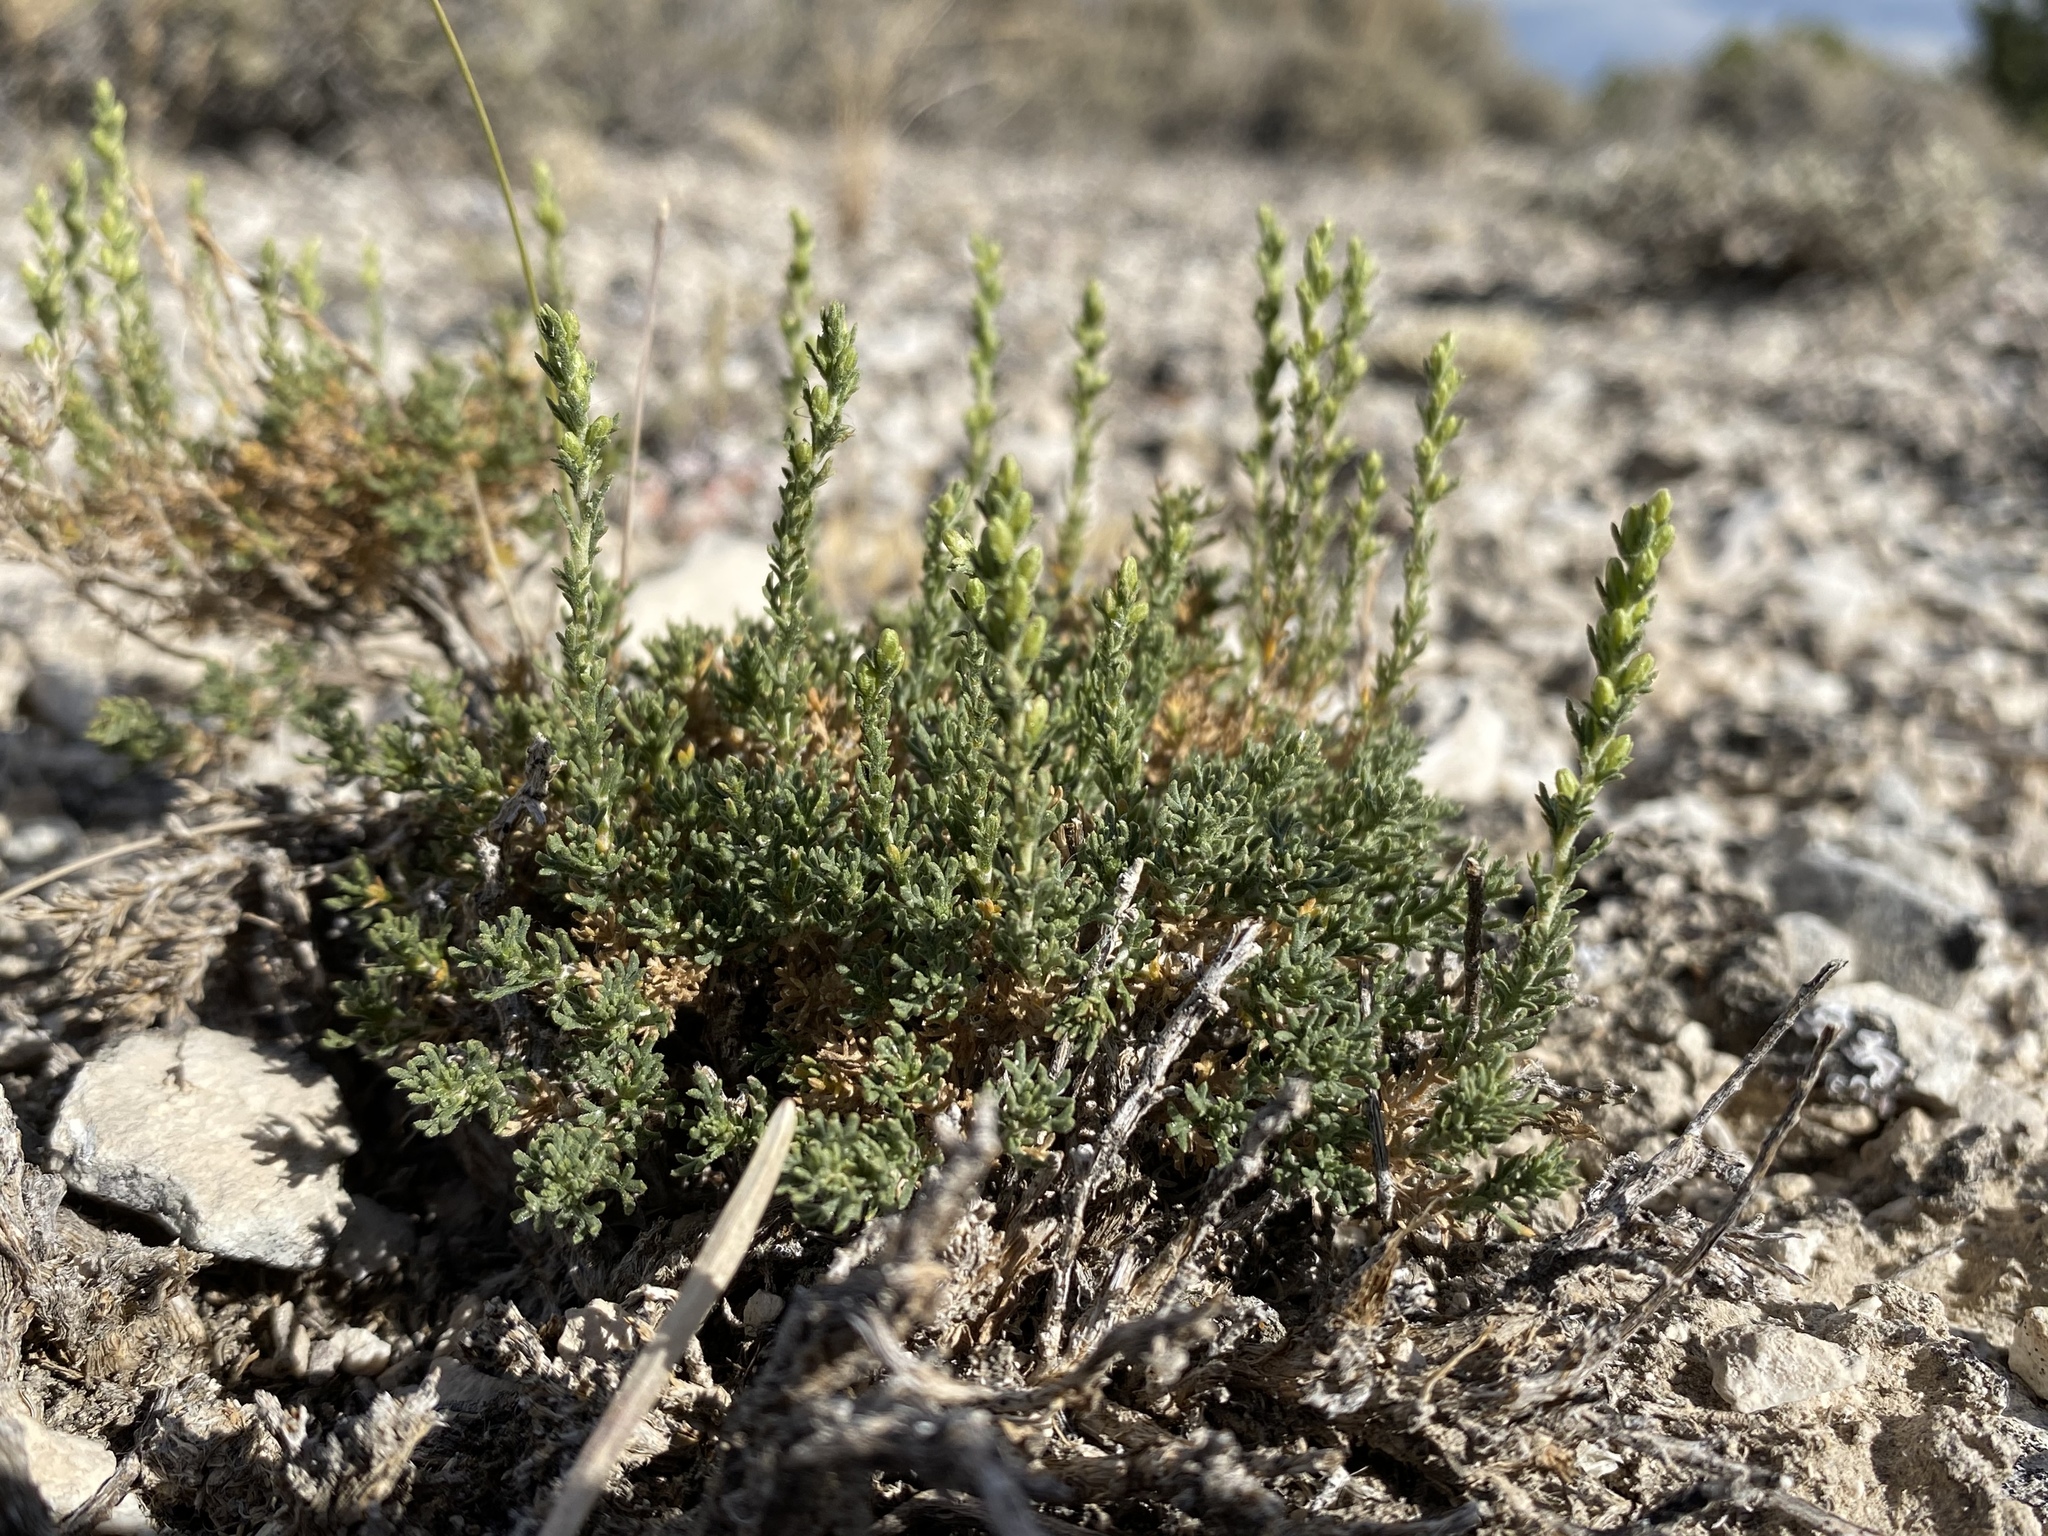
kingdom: Plantae
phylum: Tracheophyta
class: Magnoliopsida
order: Asterales
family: Asteraceae
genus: Artemisia
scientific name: Artemisia pygmaea
